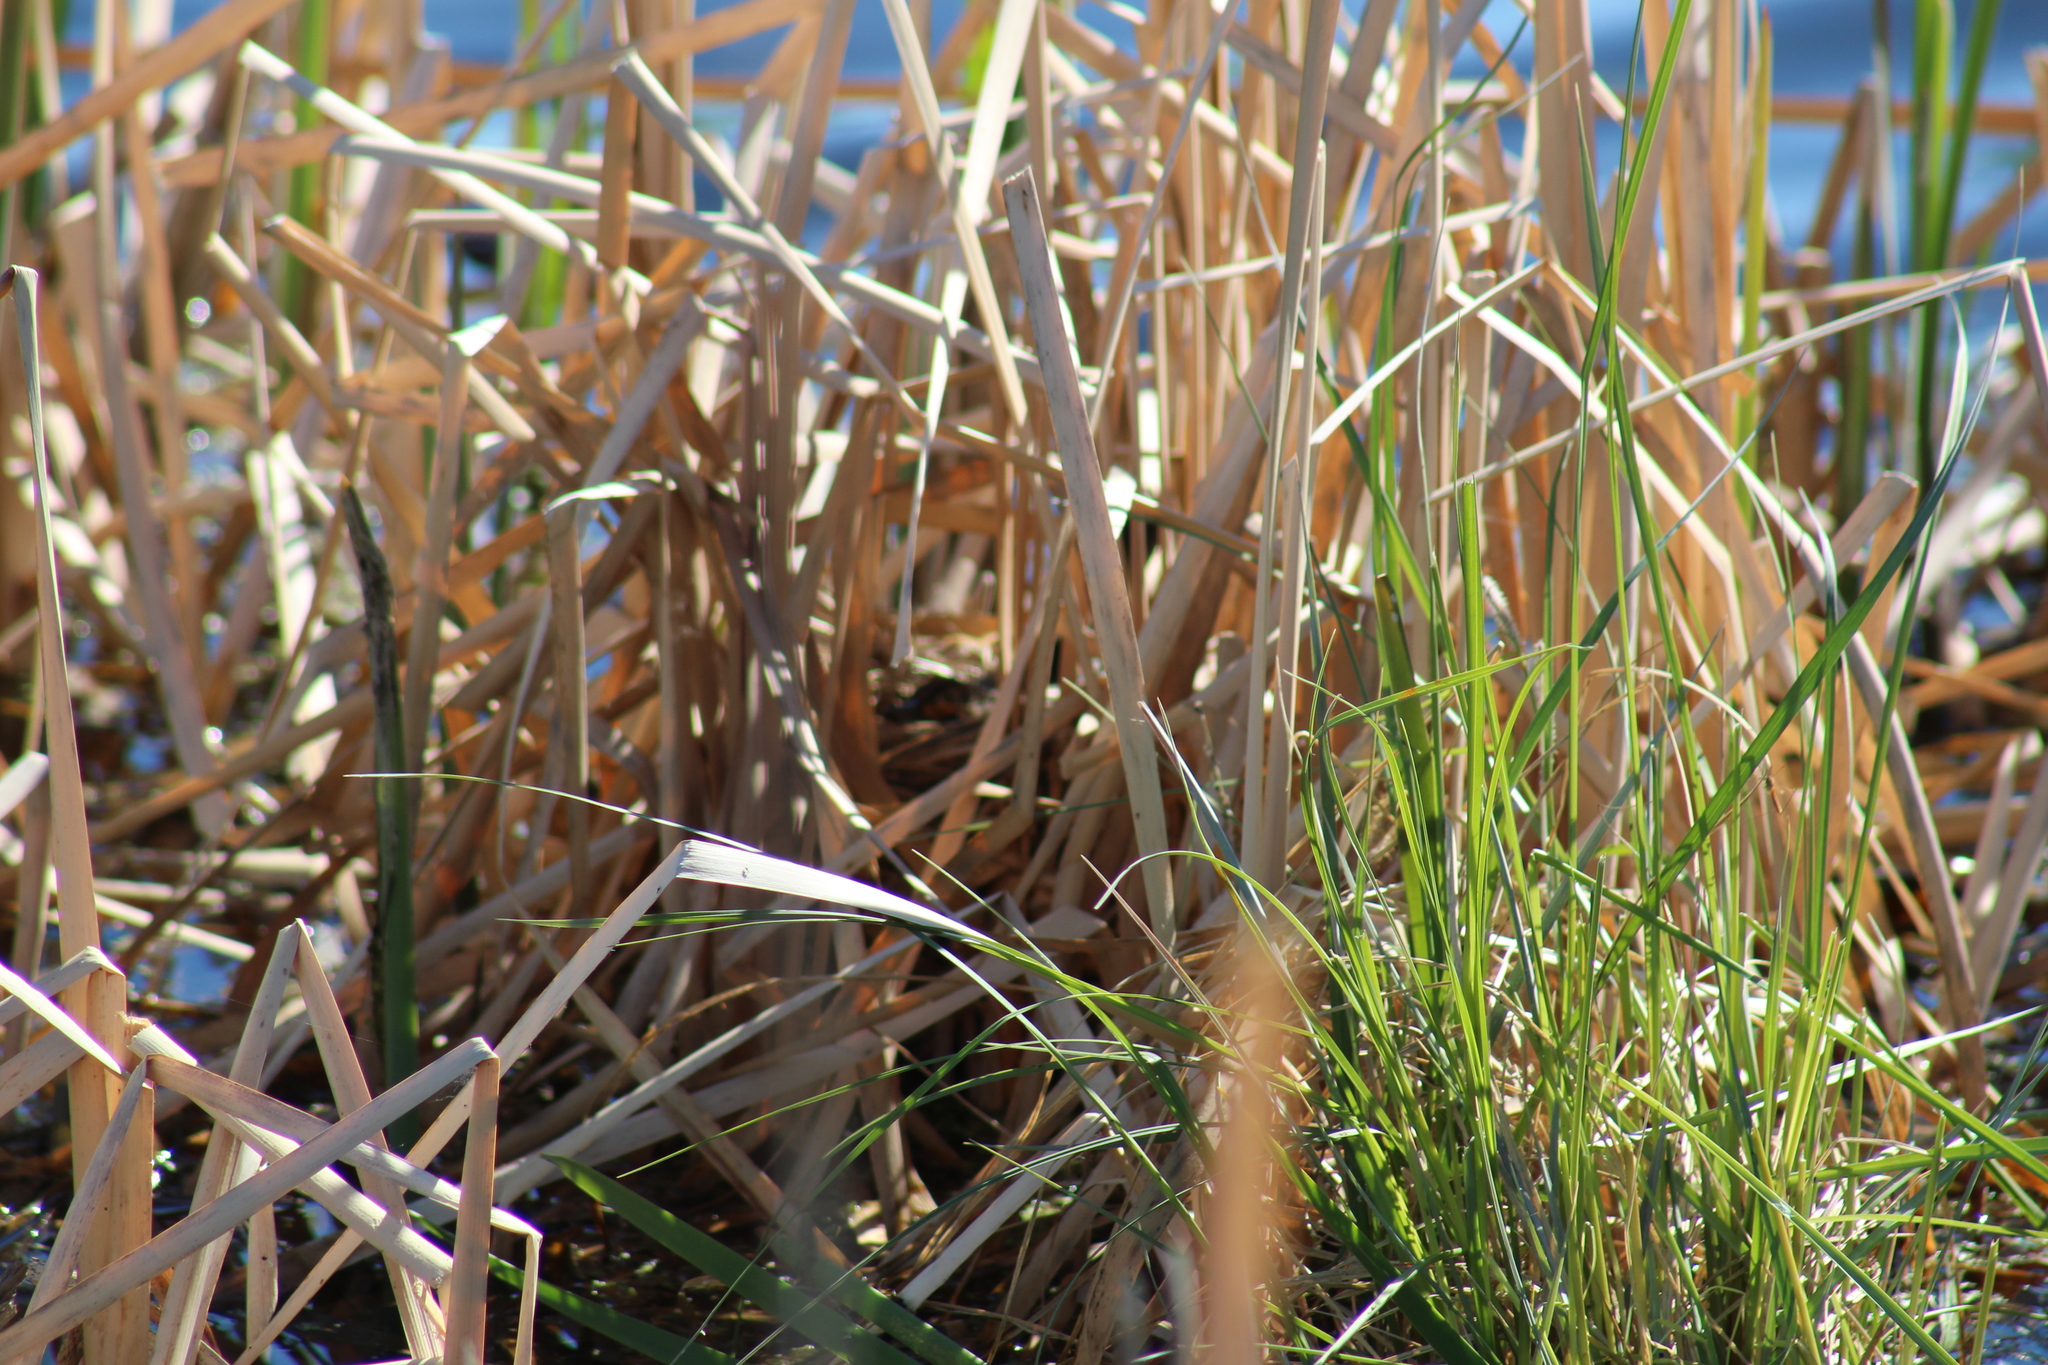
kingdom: Animalia
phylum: Chordata
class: Aves
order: Passeriformes
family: Icteridae
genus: Agelaius
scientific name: Agelaius phoeniceus
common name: Red-winged blackbird
